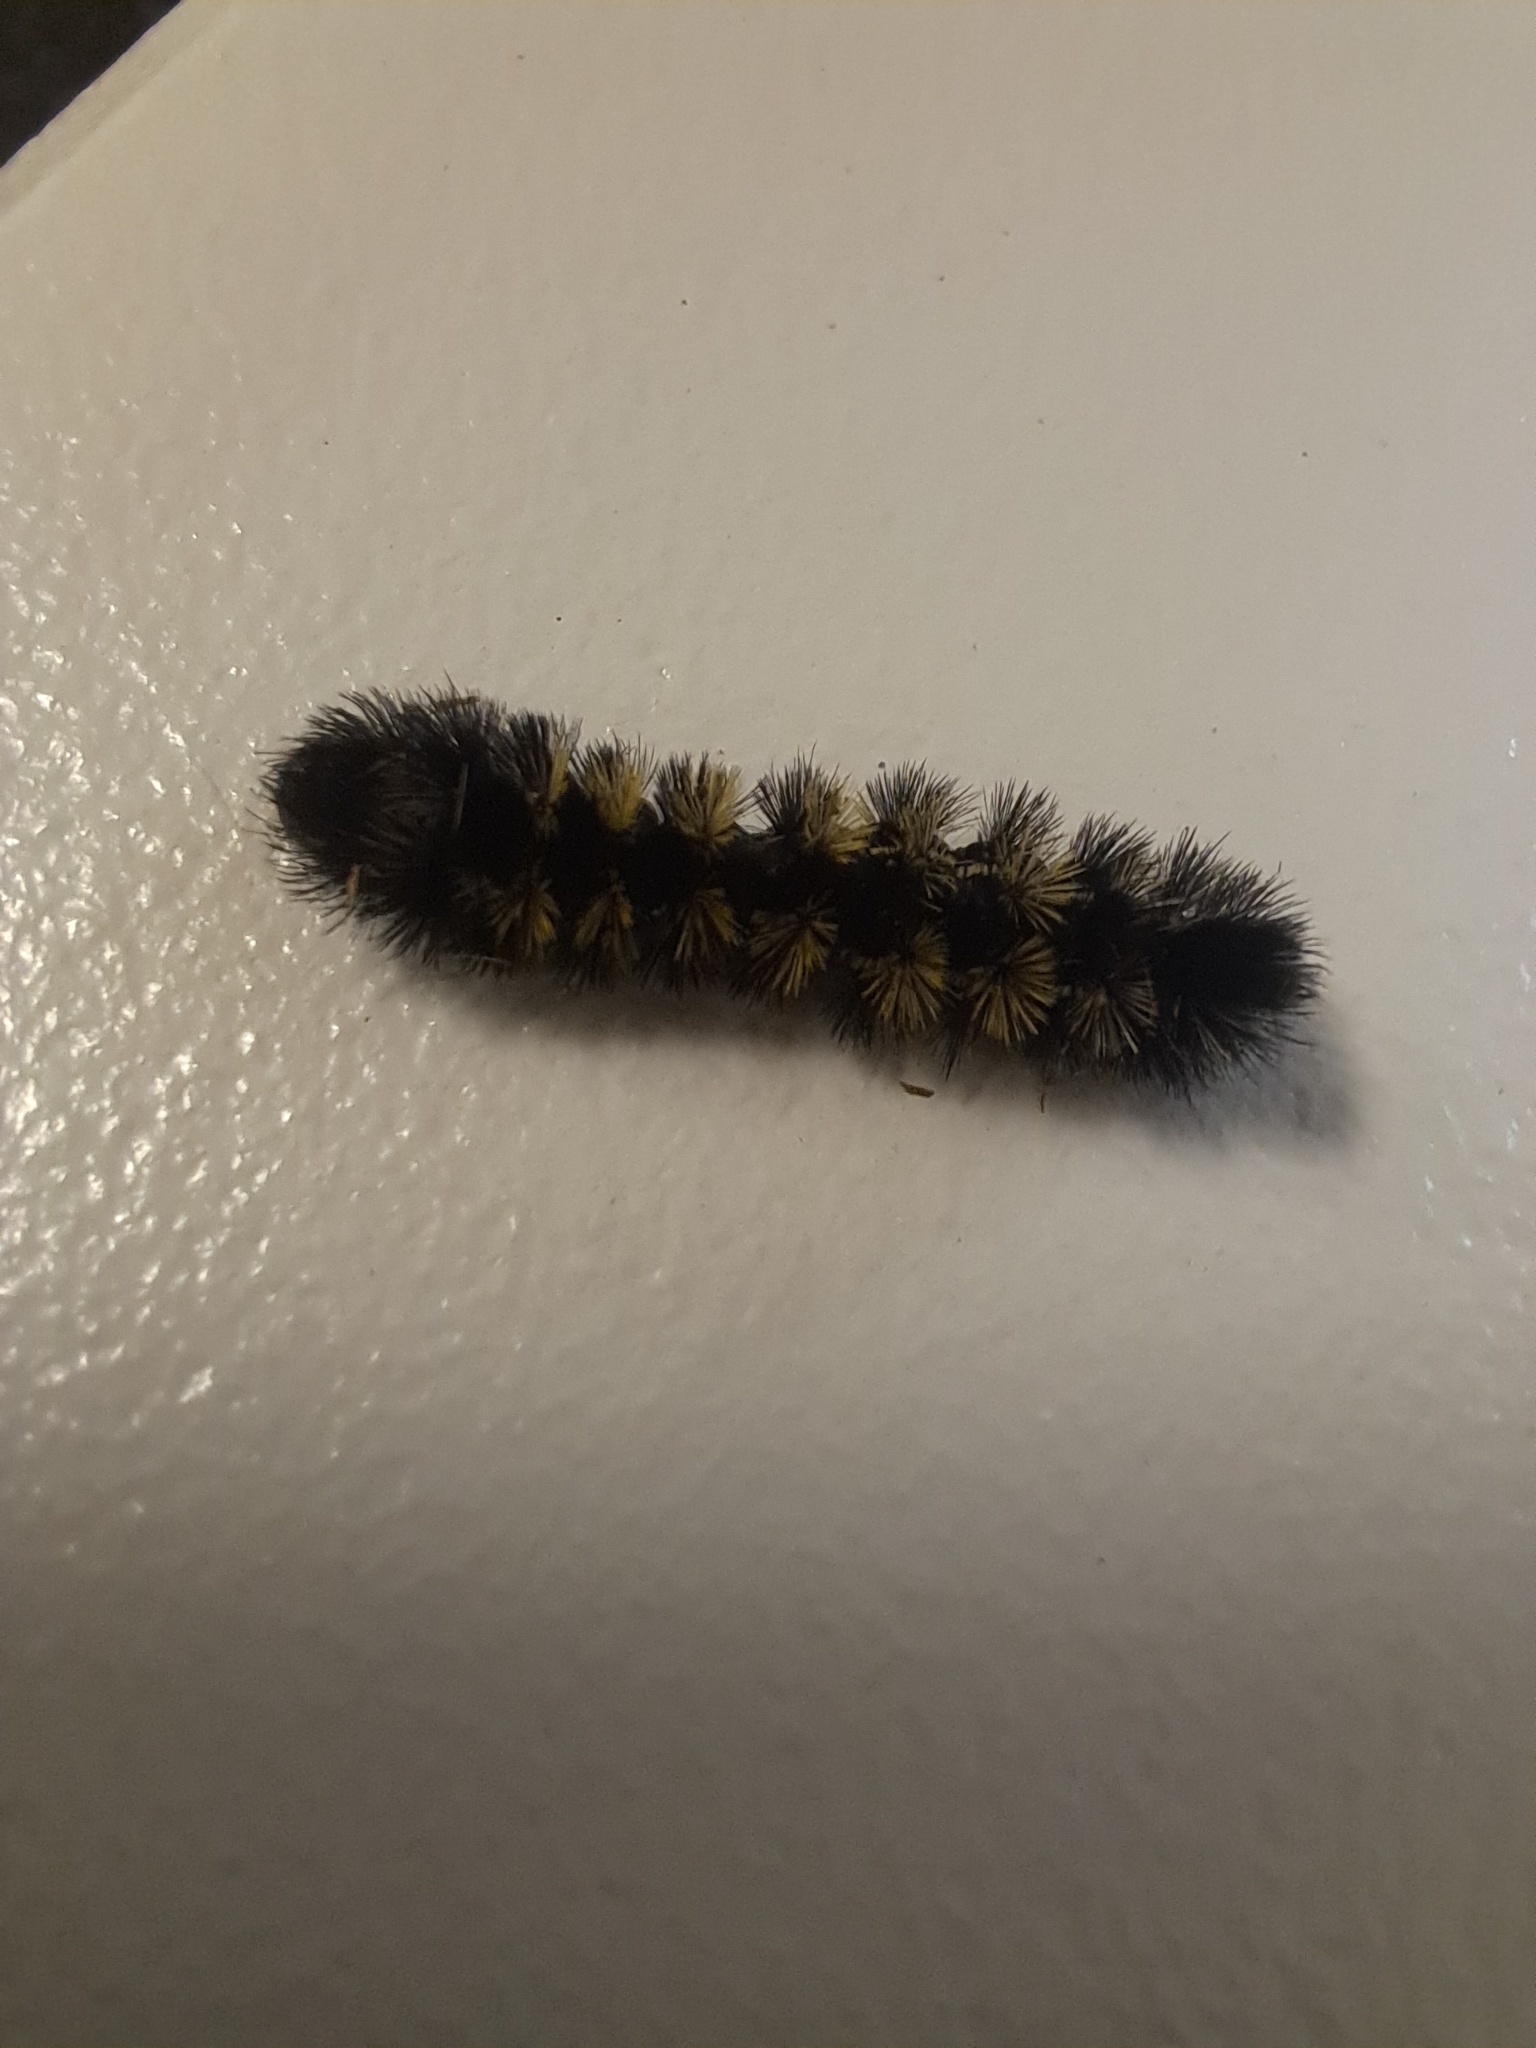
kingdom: Animalia
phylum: Arthropoda
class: Insecta
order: Lepidoptera
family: Erebidae
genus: Ctenucha
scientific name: Ctenucha virginica
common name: Virginia ctenucha moth
